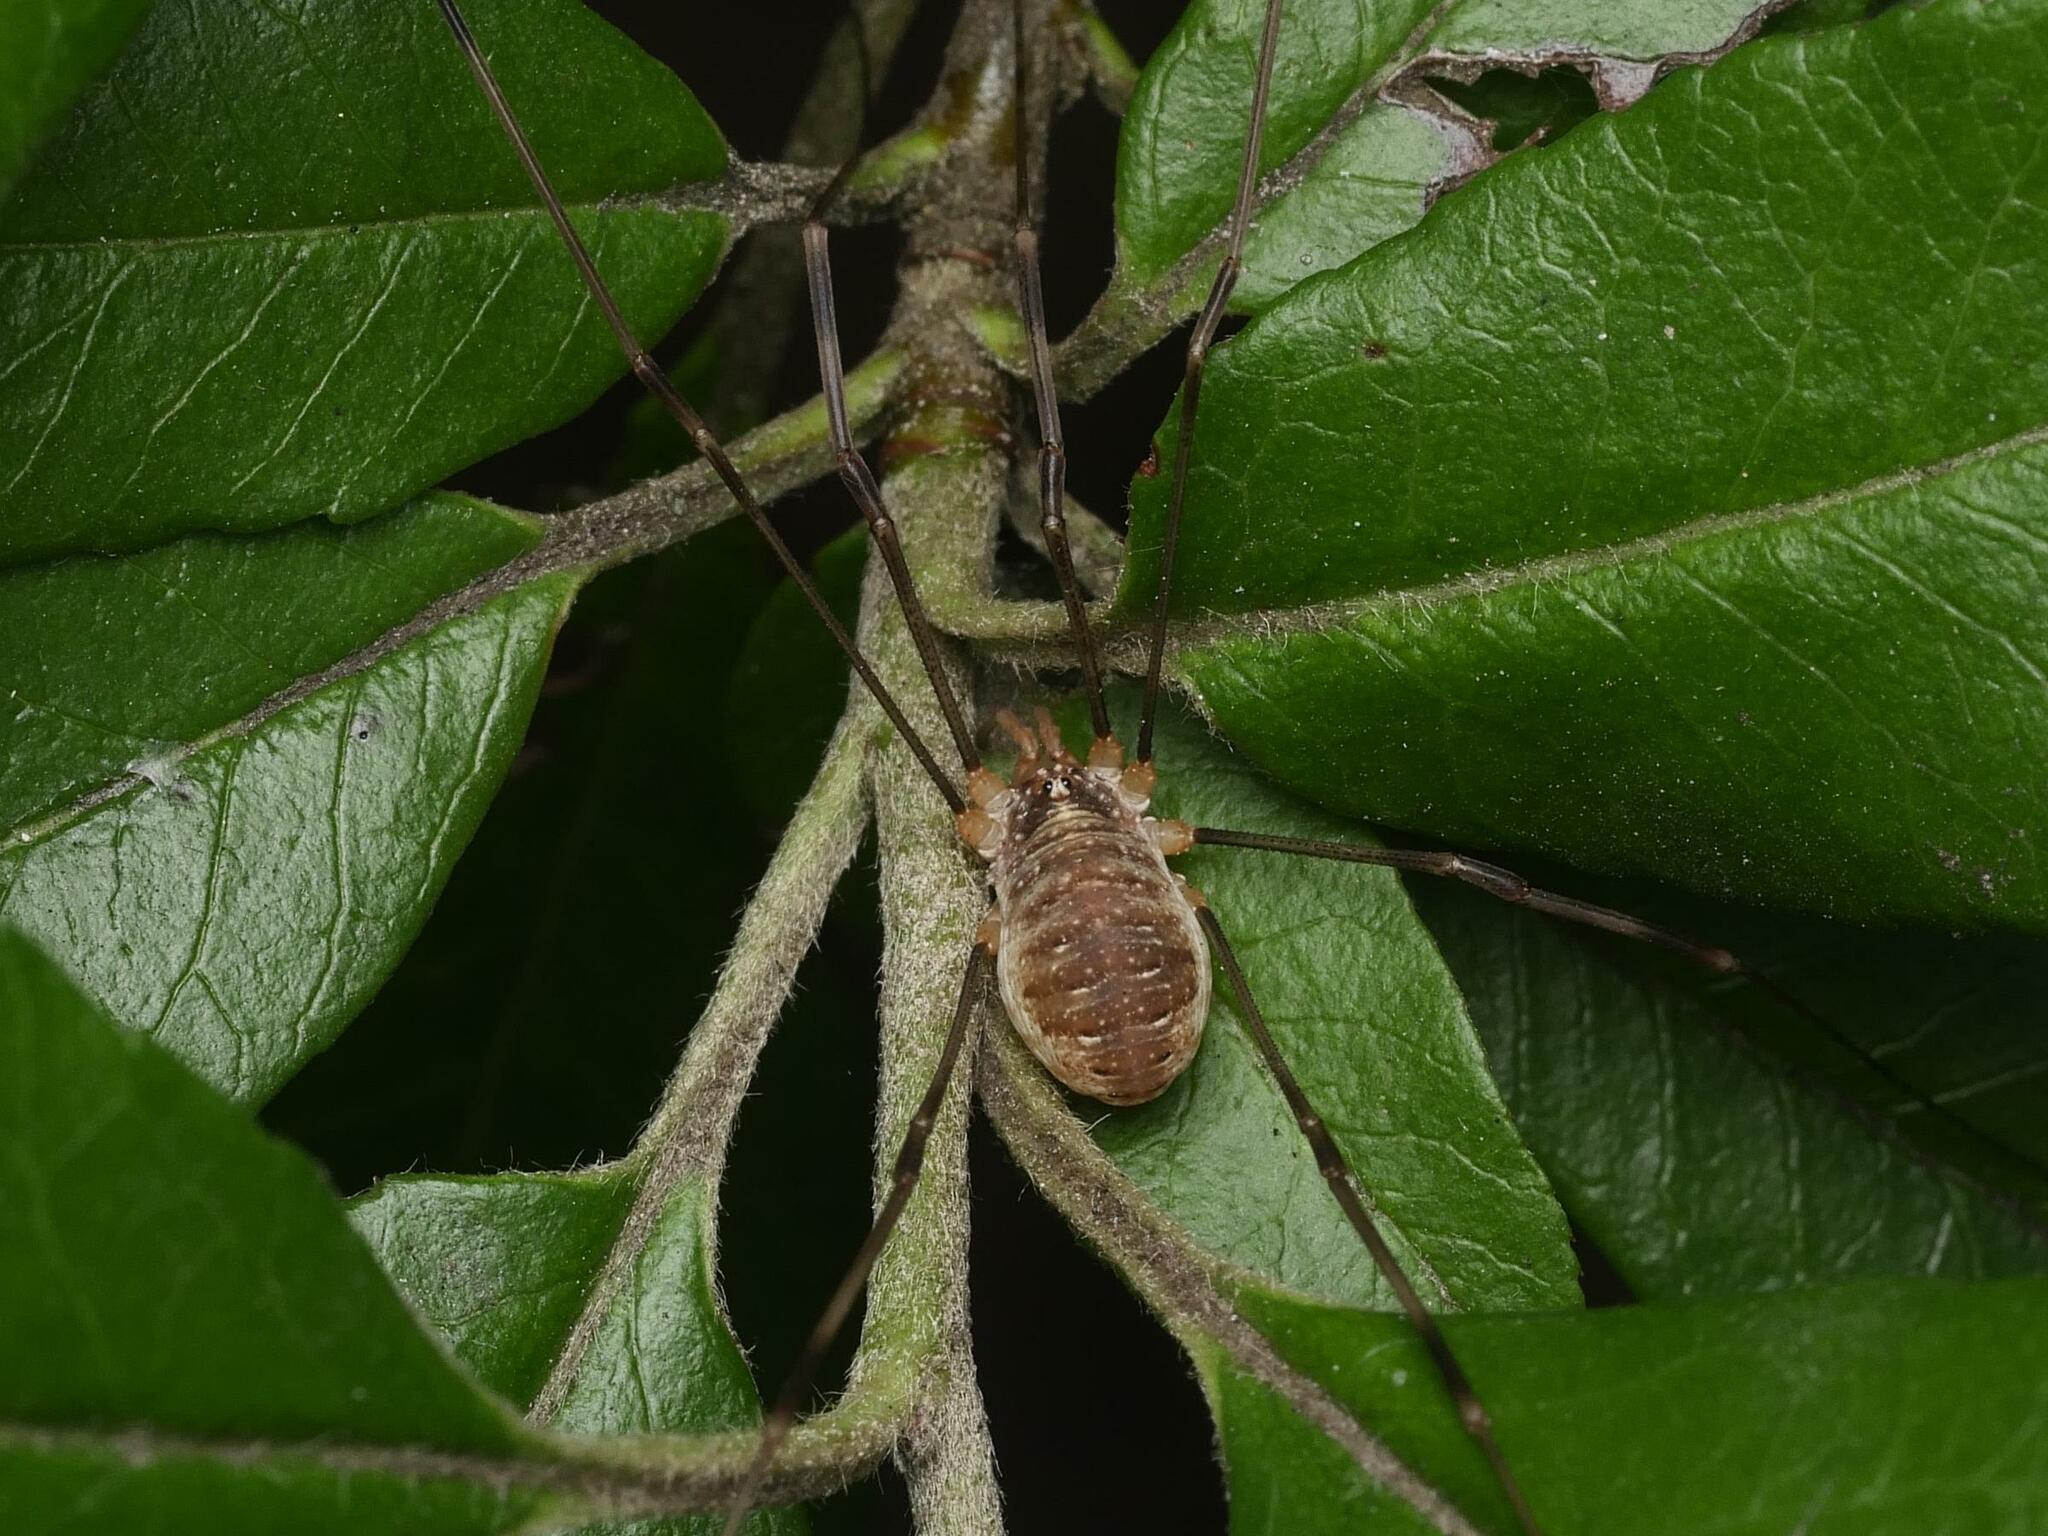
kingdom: Animalia
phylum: Arthropoda
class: Arachnida
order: Opiliones
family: Phalangiidae
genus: Opilio
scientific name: Opilio canestrinii
